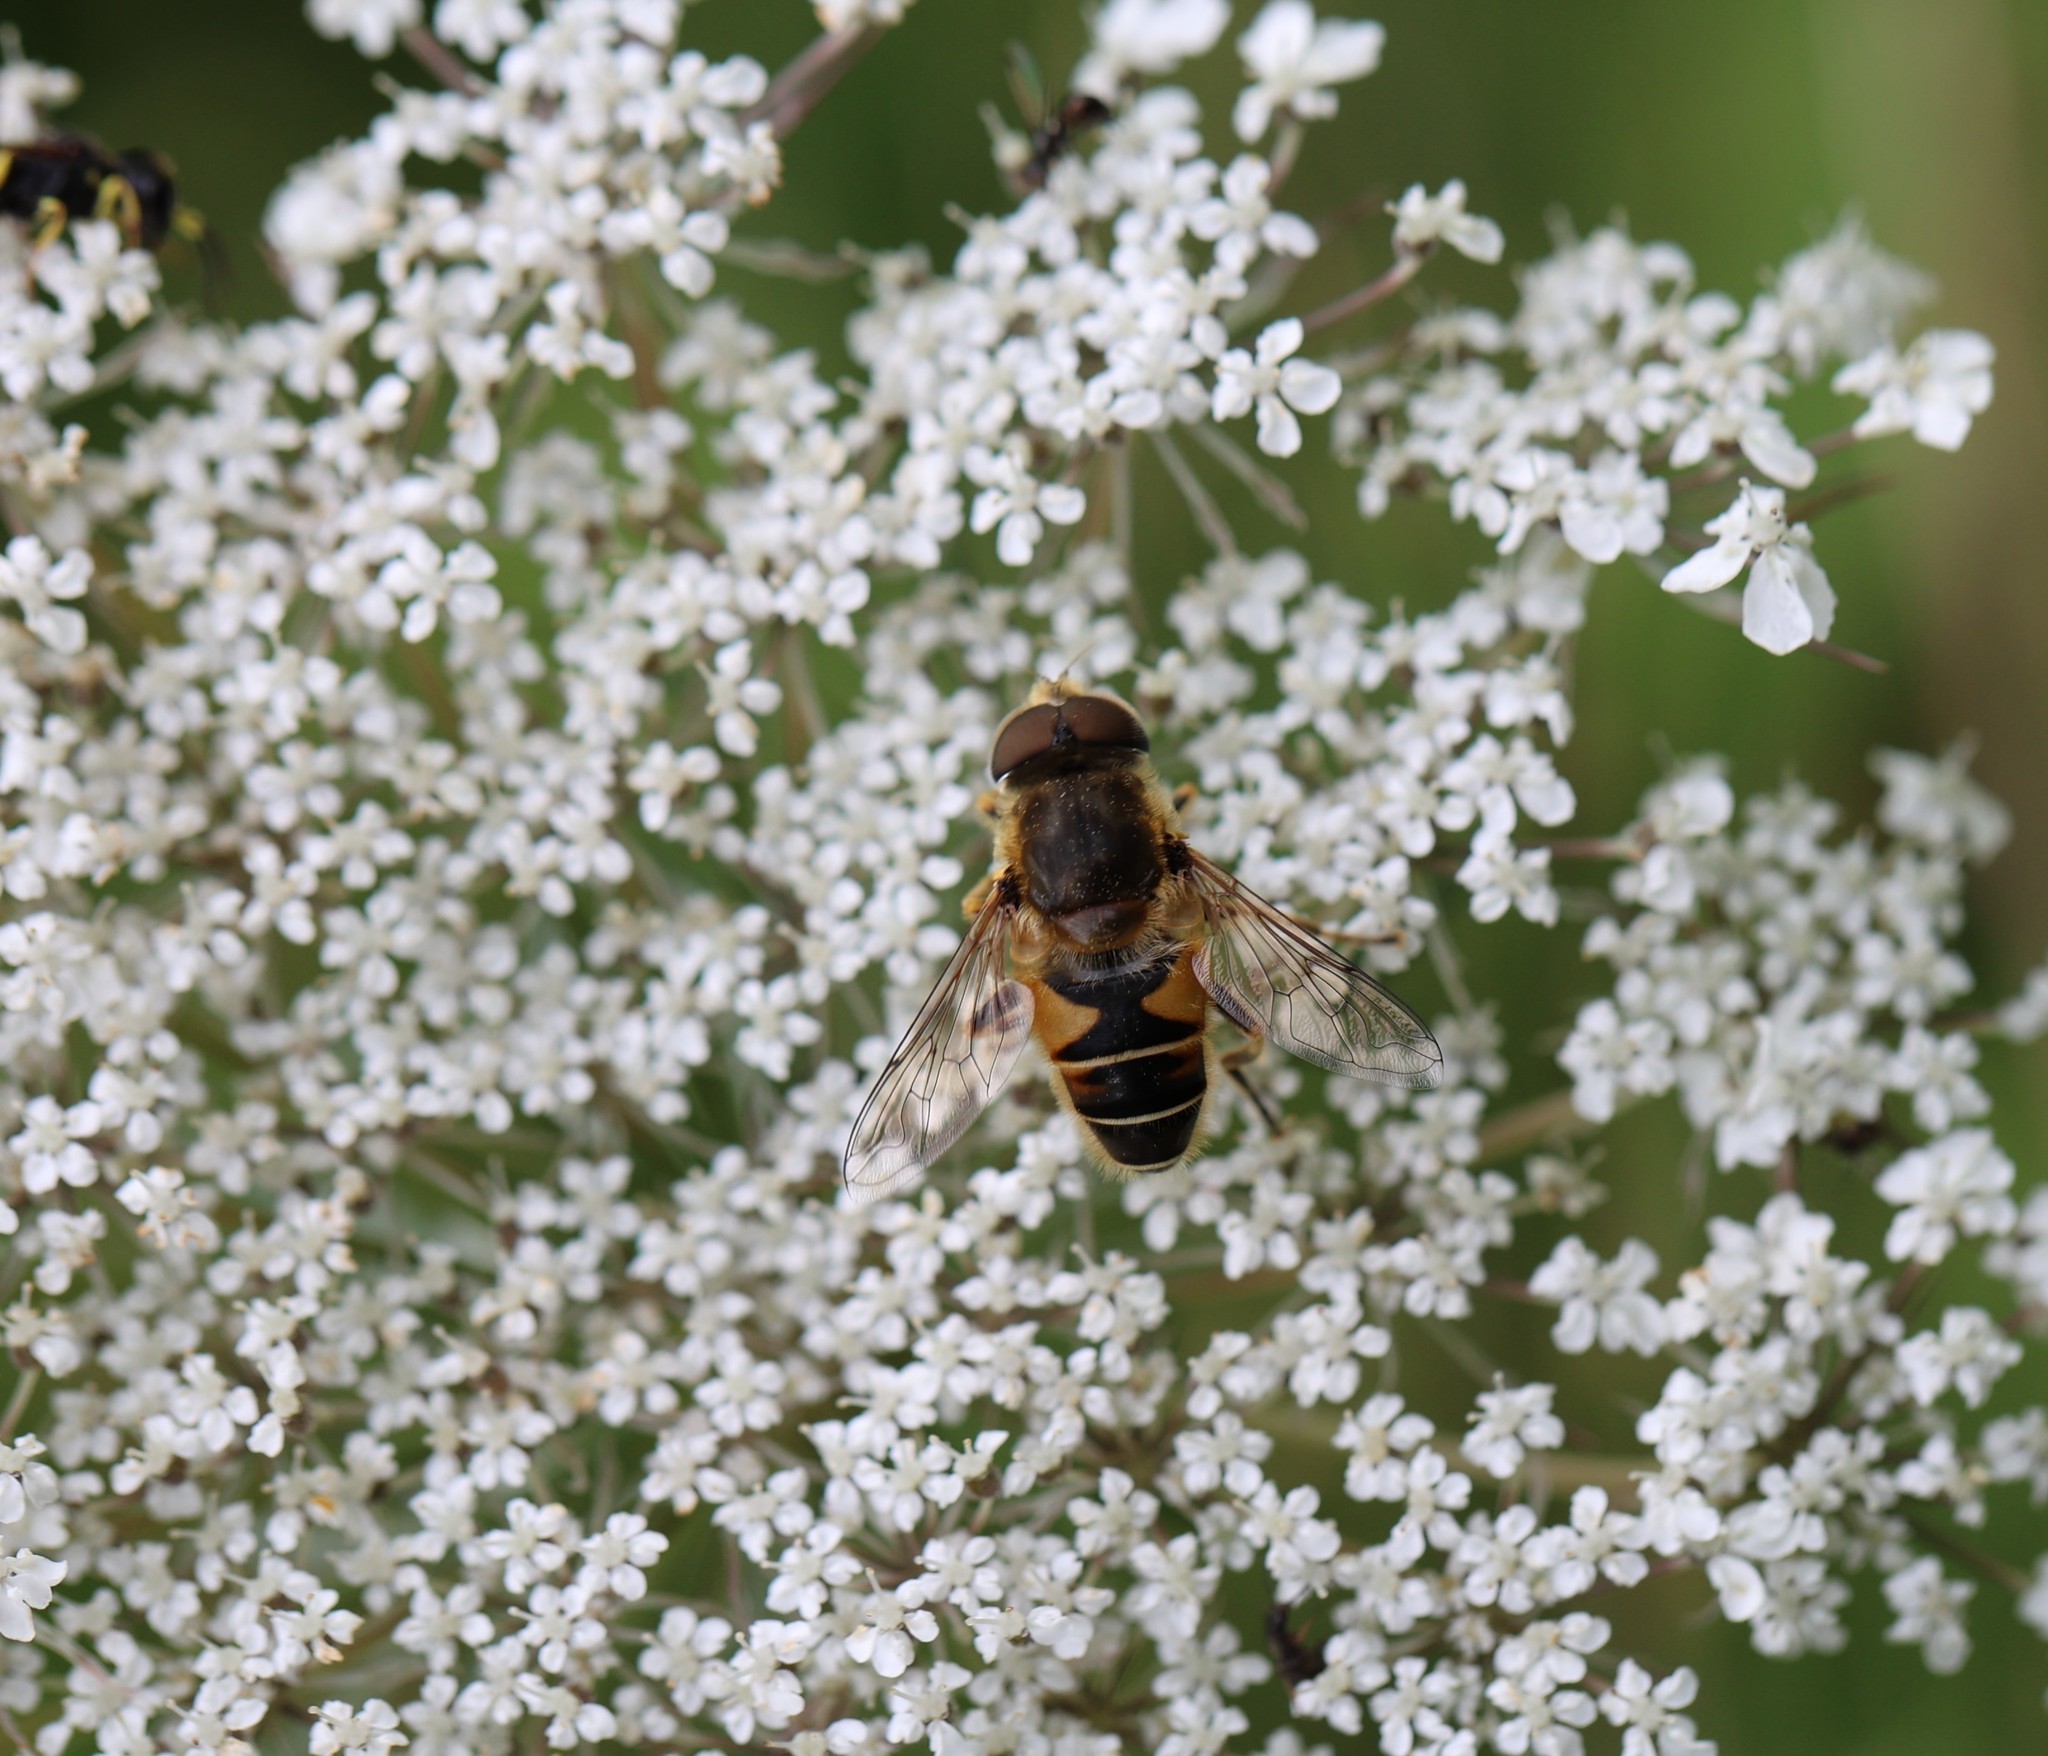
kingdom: Animalia
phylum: Arthropoda
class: Insecta
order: Diptera
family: Syrphidae
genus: Eristalis
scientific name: Eristalis nemorum
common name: Orange-spined drone fly
